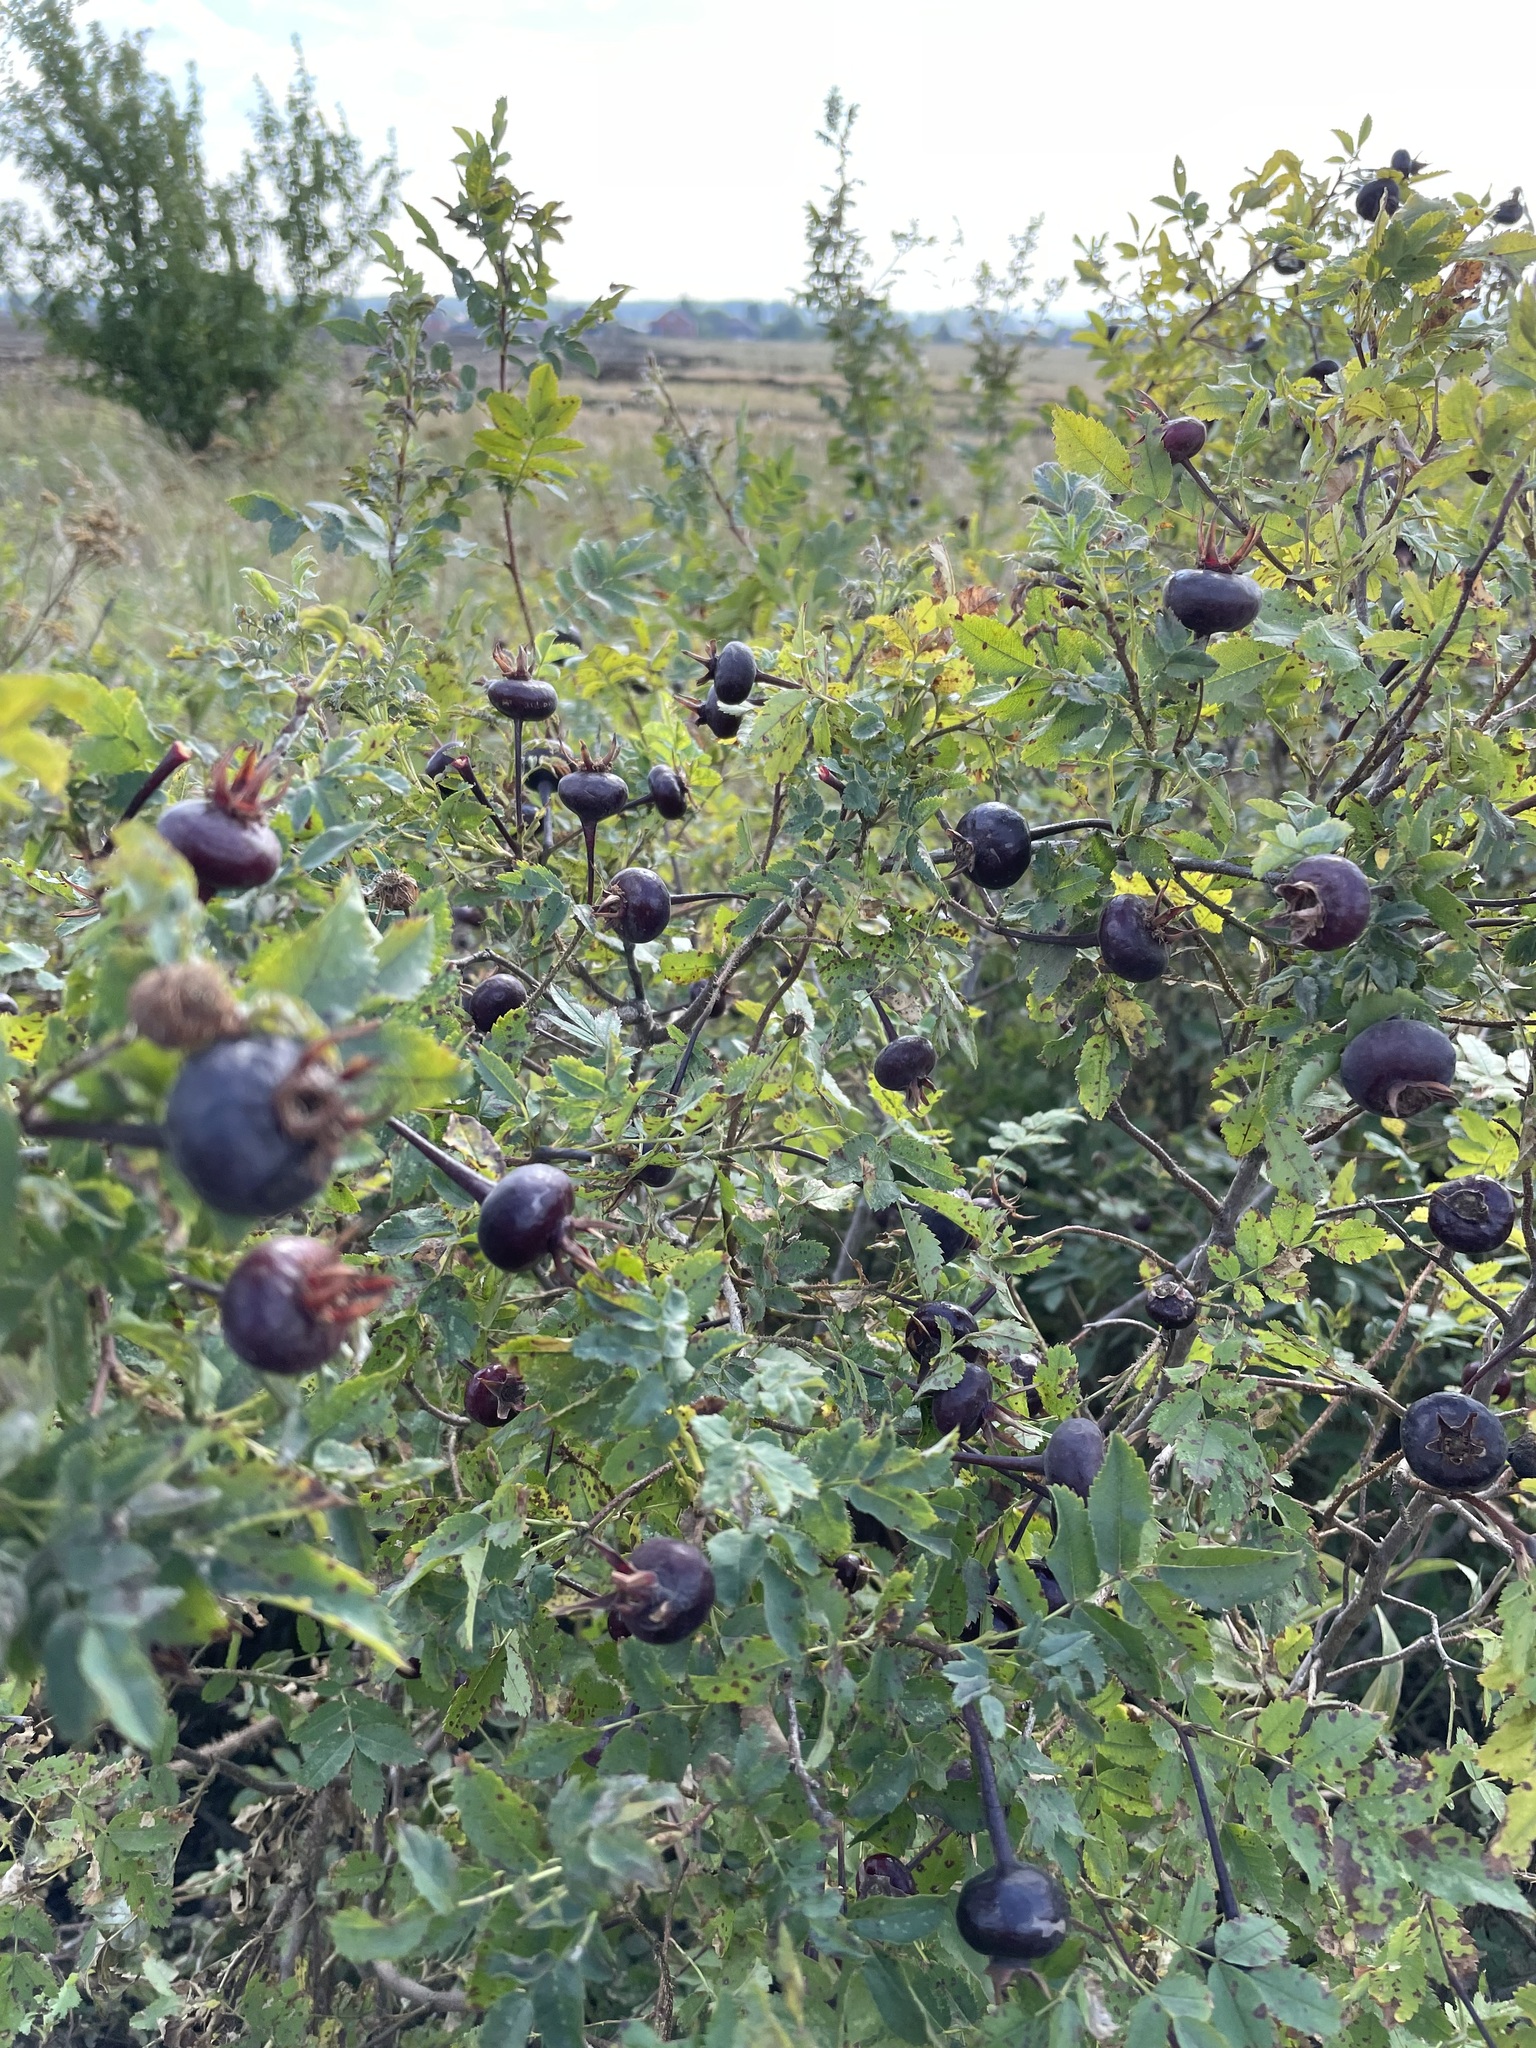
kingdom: Plantae
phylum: Tracheophyta
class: Magnoliopsida
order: Rosales
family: Rosaceae
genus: Rosa
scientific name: Rosa spinosissima
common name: Burnet rose
